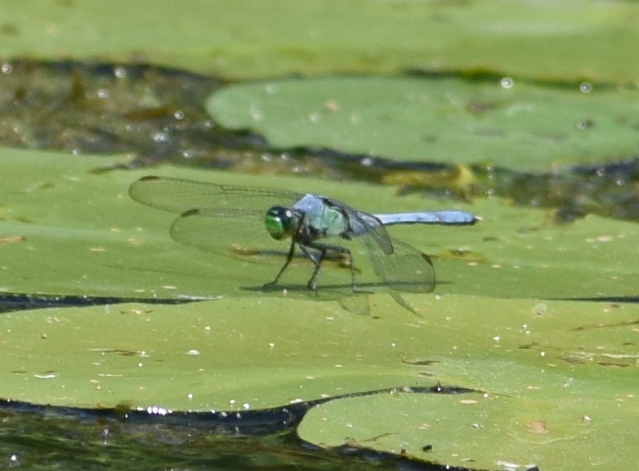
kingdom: Animalia
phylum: Arthropoda
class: Insecta
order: Odonata
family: Libellulidae
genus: Erythemis
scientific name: Erythemis simplicicollis
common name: Eastern pondhawk
